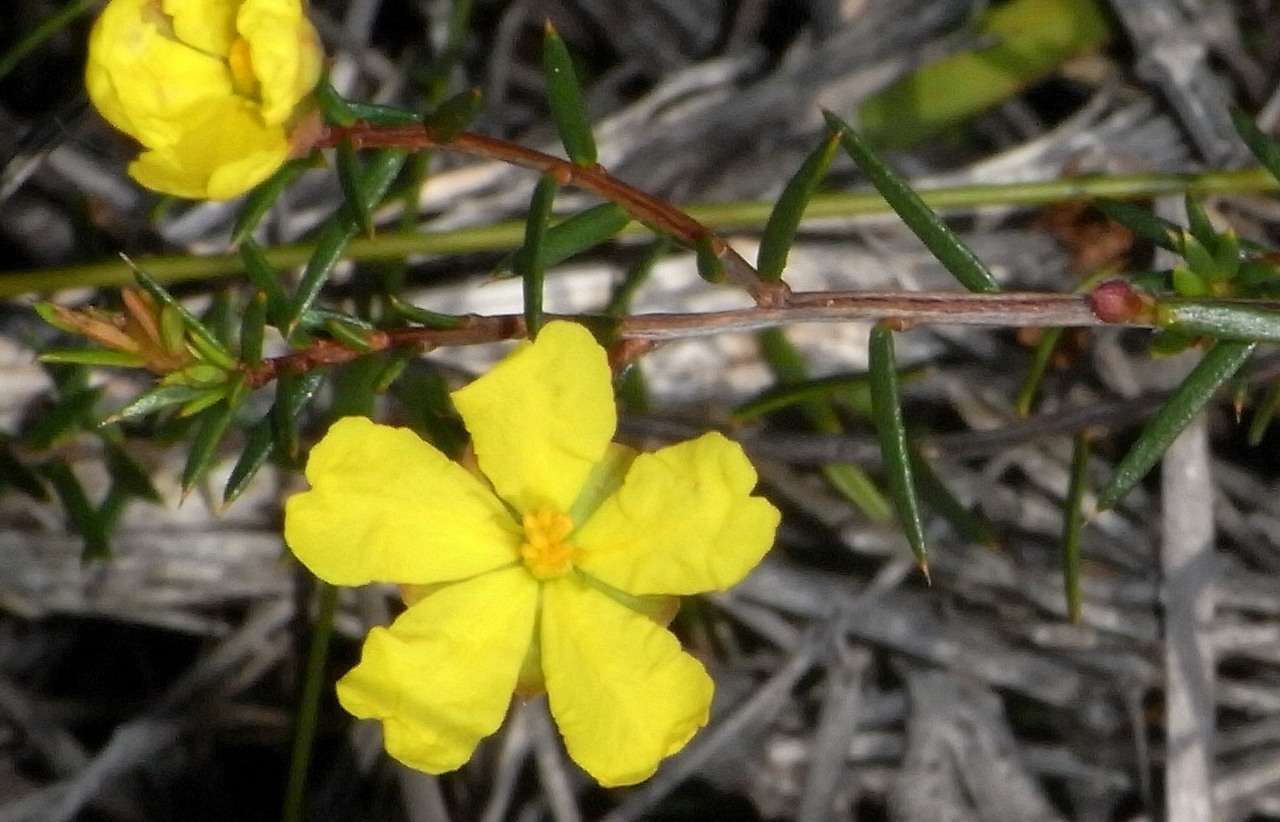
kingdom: Plantae
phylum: Tracheophyta
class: Magnoliopsida
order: Dilleniales
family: Dilleniaceae
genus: Hibbertia
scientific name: Hibbertia acicularis
